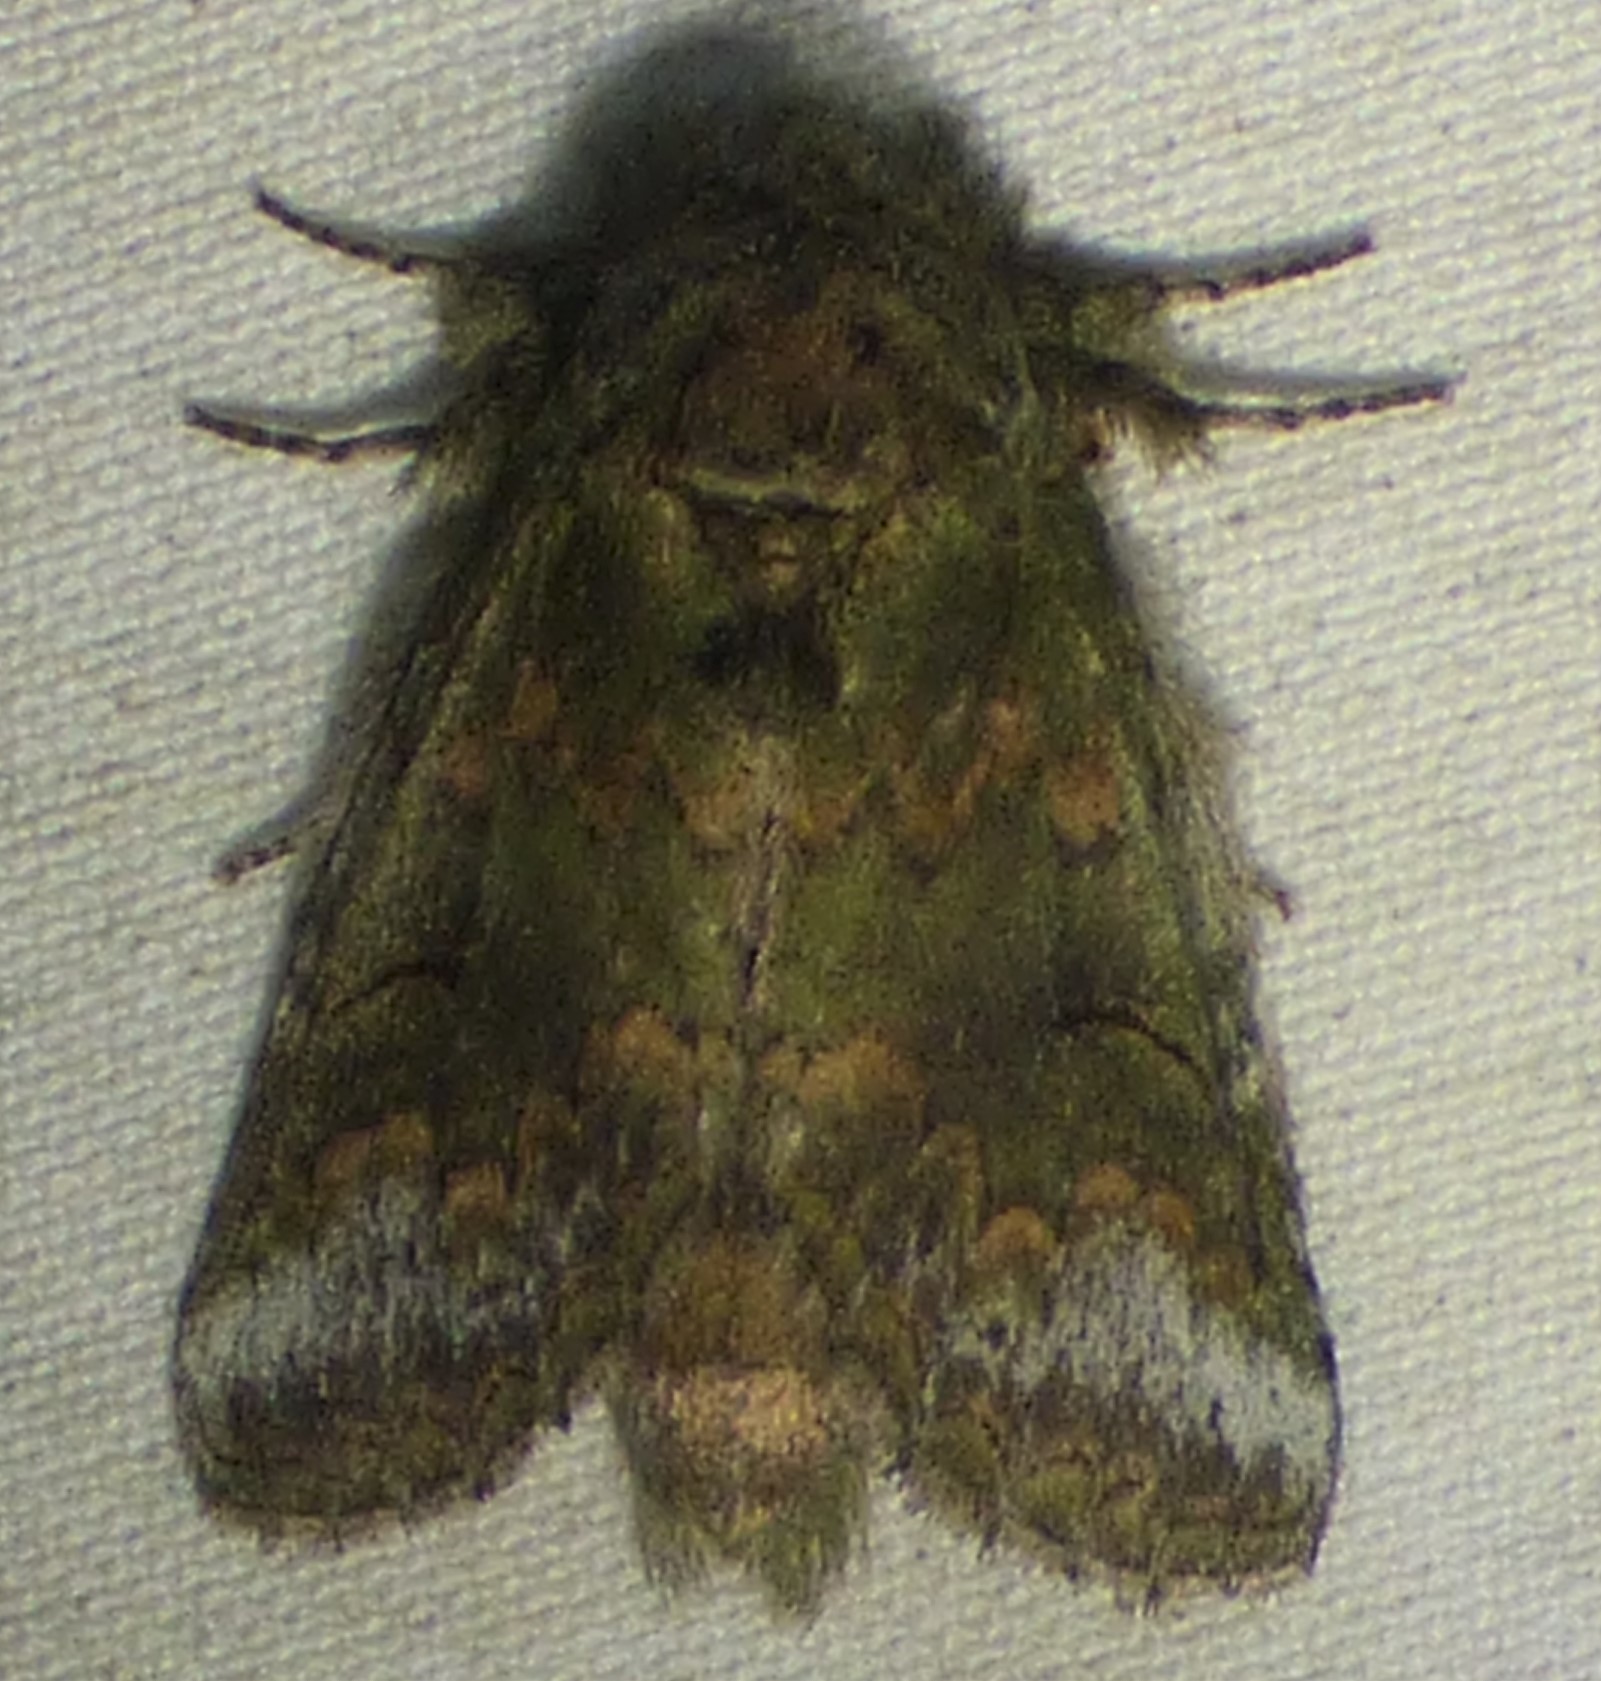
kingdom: Animalia
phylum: Arthropoda
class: Insecta
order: Lepidoptera
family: Notodontidae
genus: Disphragis
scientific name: Disphragis Cecrita biundata
